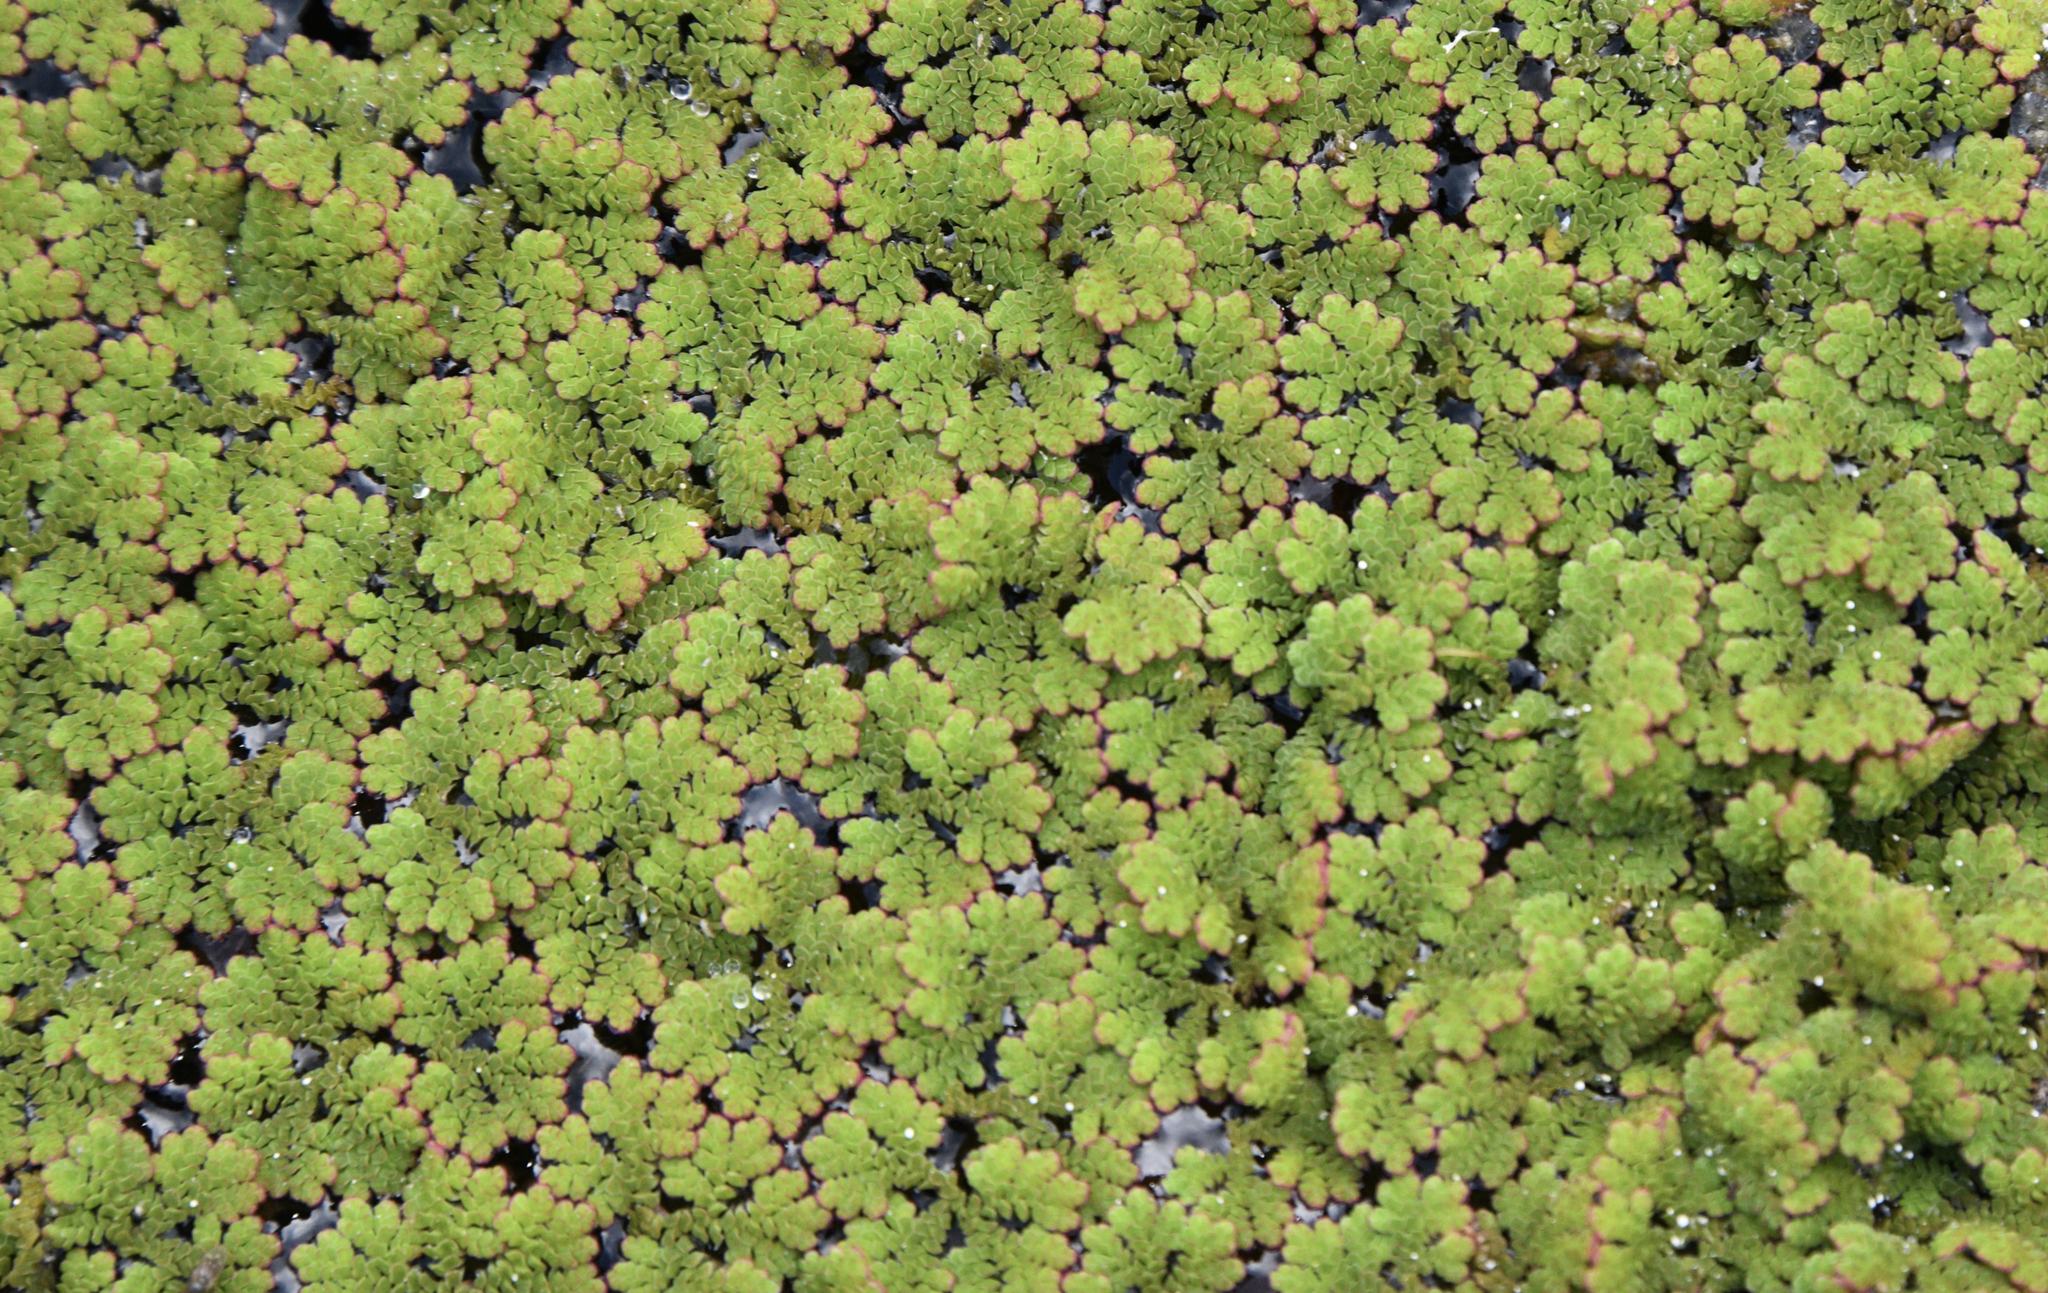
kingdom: Plantae
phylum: Tracheophyta
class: Polypodiopsida
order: Salviniales
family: Salviniaceae
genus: Azolla
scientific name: Azolla filiculoides
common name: Water fern
